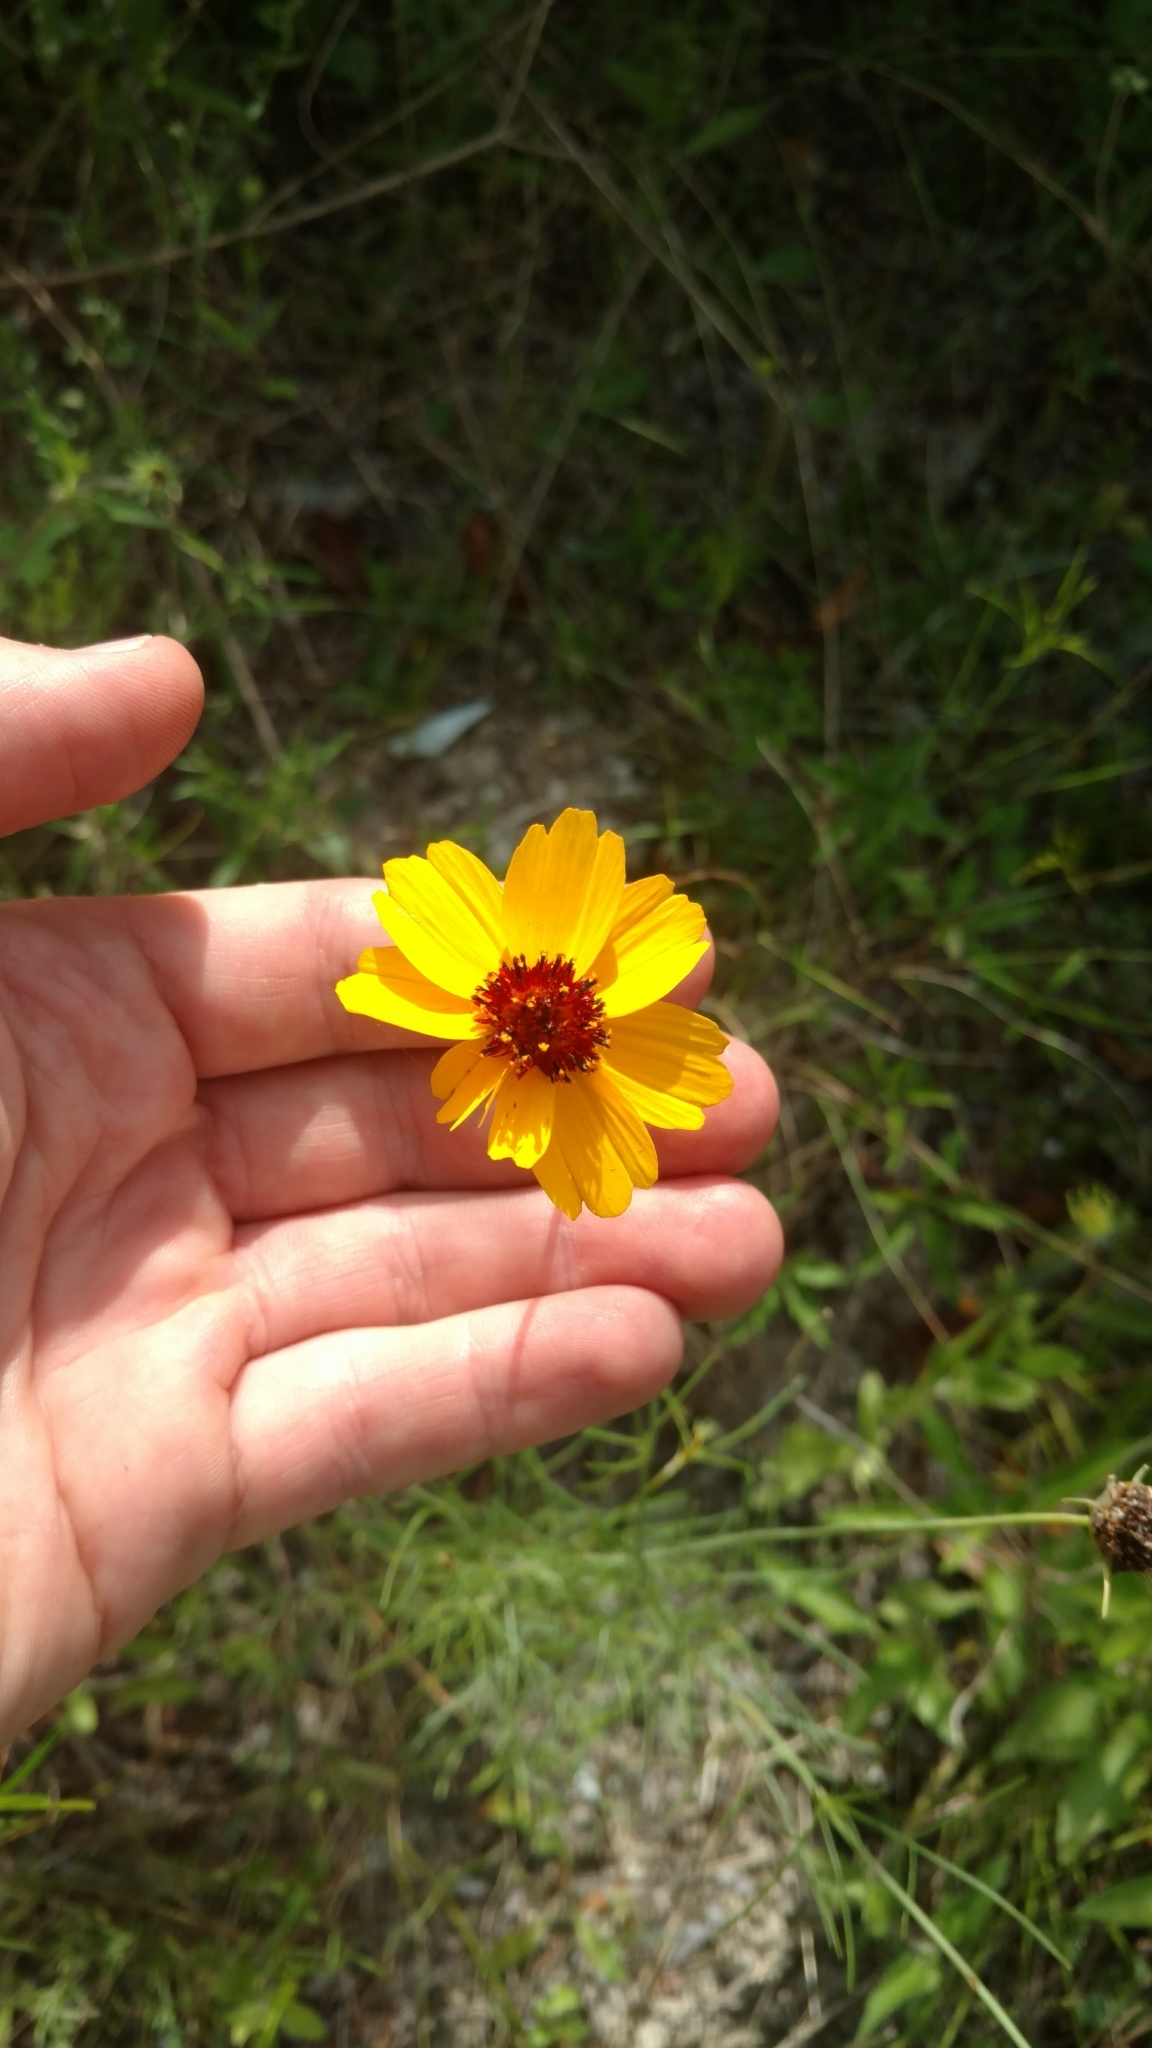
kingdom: Plantae
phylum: Tracheophyta
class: Magnoliopsida
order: Asterales
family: Asteraceae
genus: Thelesperma
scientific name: Thelesperma filifolium
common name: Stiff greenthread
